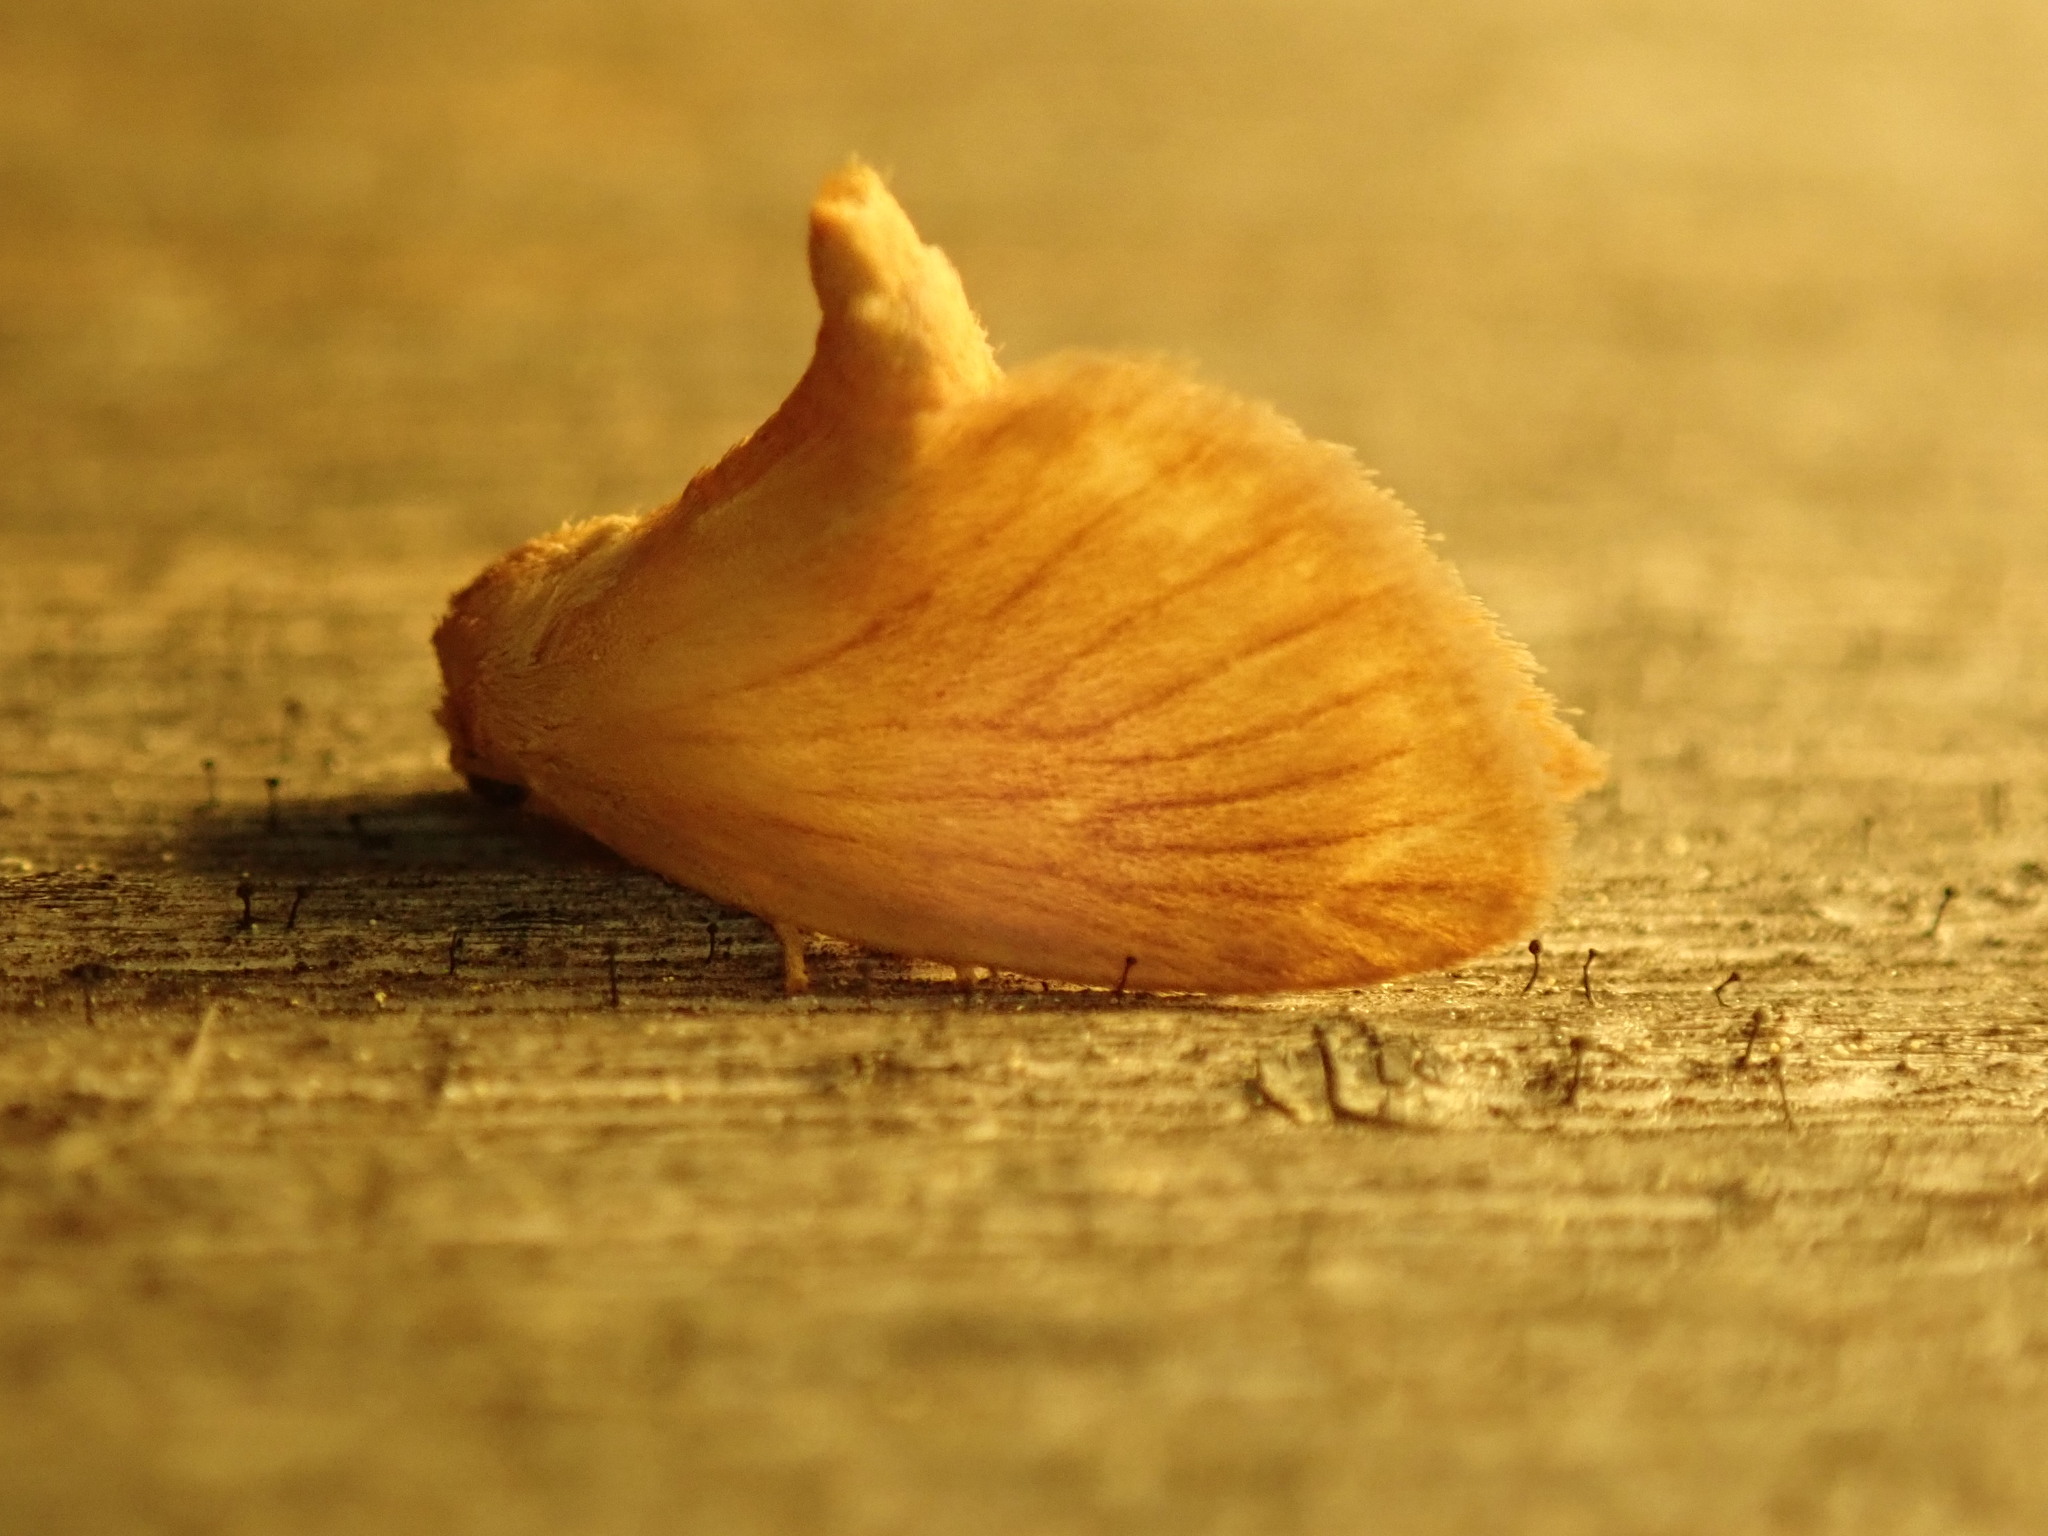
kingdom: Animalia
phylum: Arthropoda
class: Insecta
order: Lepidoptera
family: Limacodidae
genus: Tortricidia
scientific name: Tortricidia testacea
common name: Early button slug moth
